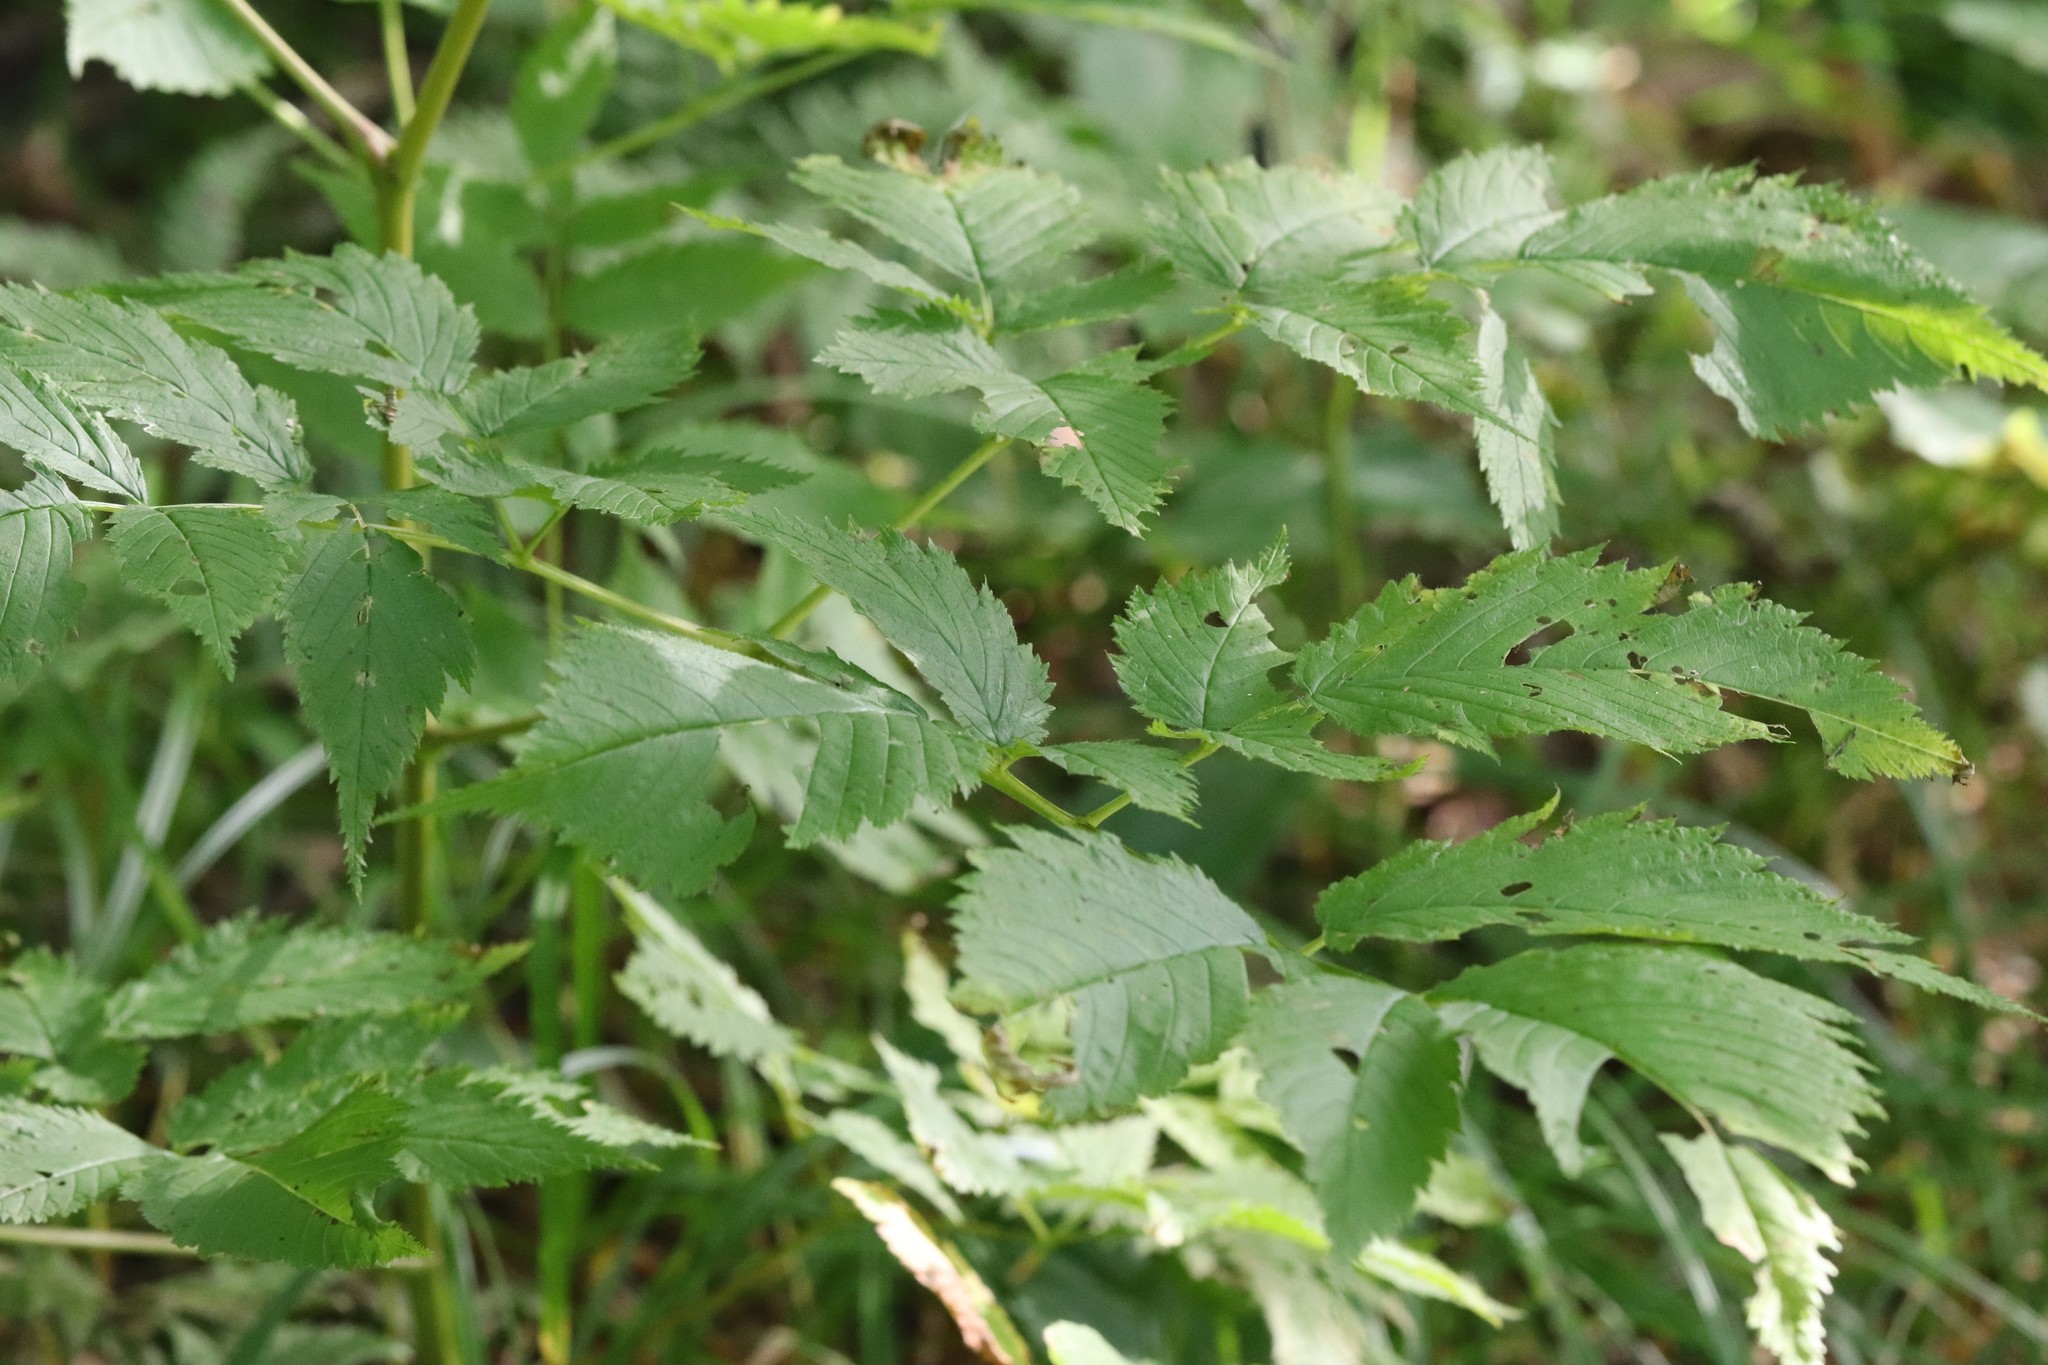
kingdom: Plantae
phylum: Tracheophyta
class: Magnoliopsida
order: Rosales
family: Rosaceae
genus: Aruncus
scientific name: Aruncus dioicus
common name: Buck's-beard
